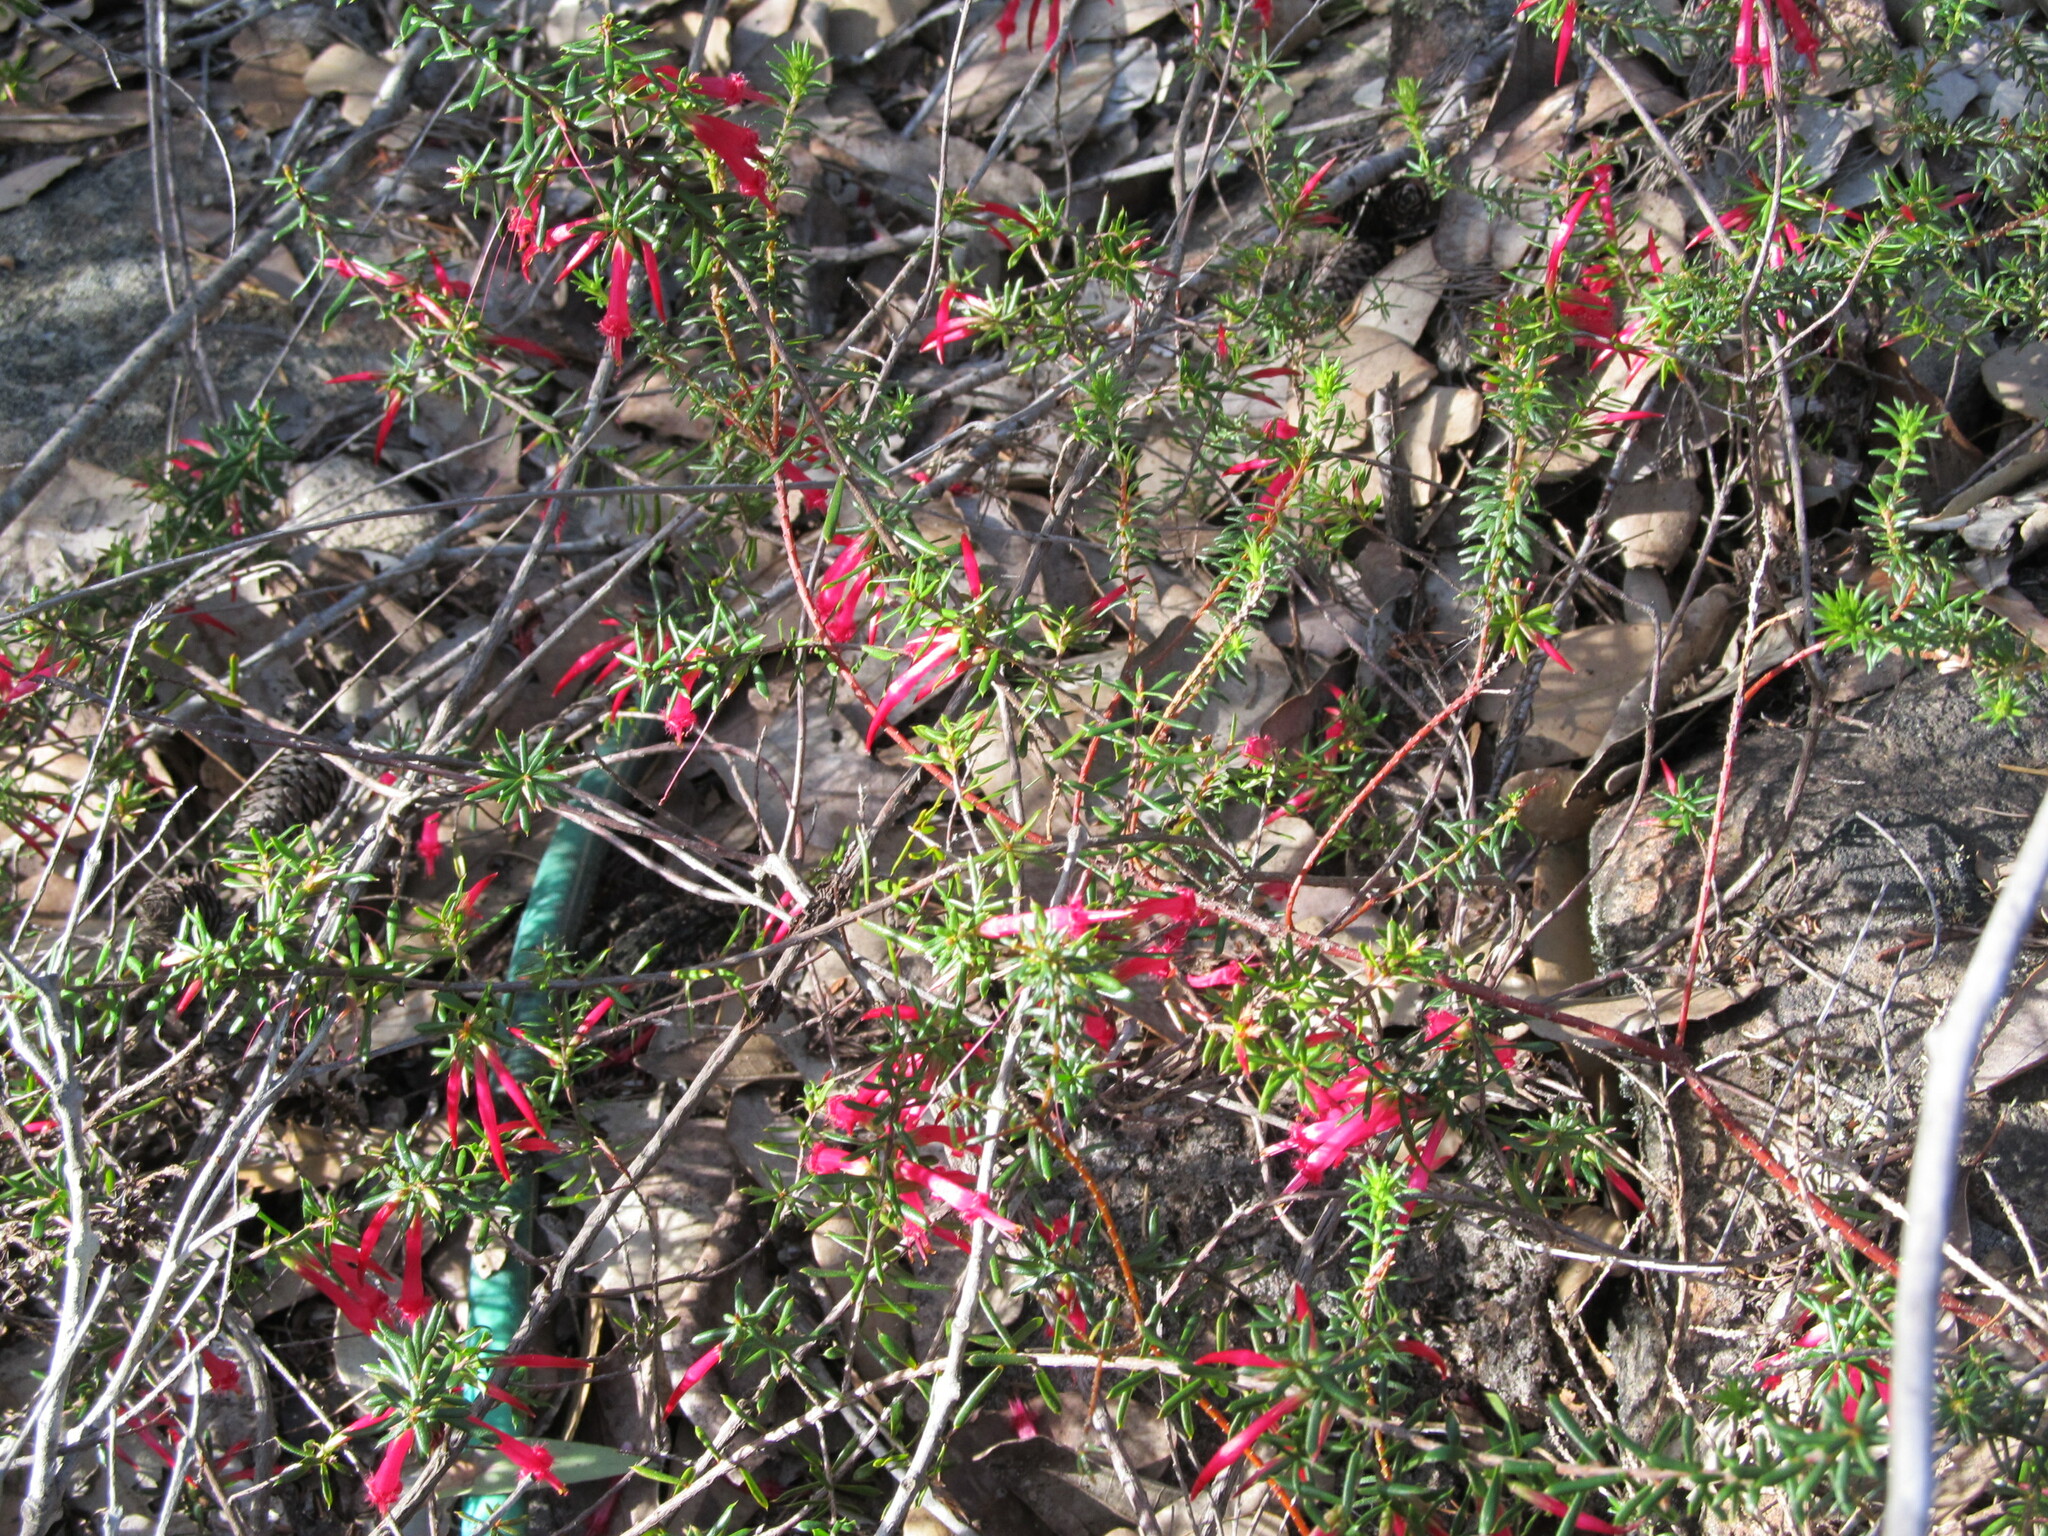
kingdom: Plantae
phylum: Tracheophyta
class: Magnoliopsida
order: Ericales
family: Ericaceae
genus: Styphelia
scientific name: Styphelia tubiflora
